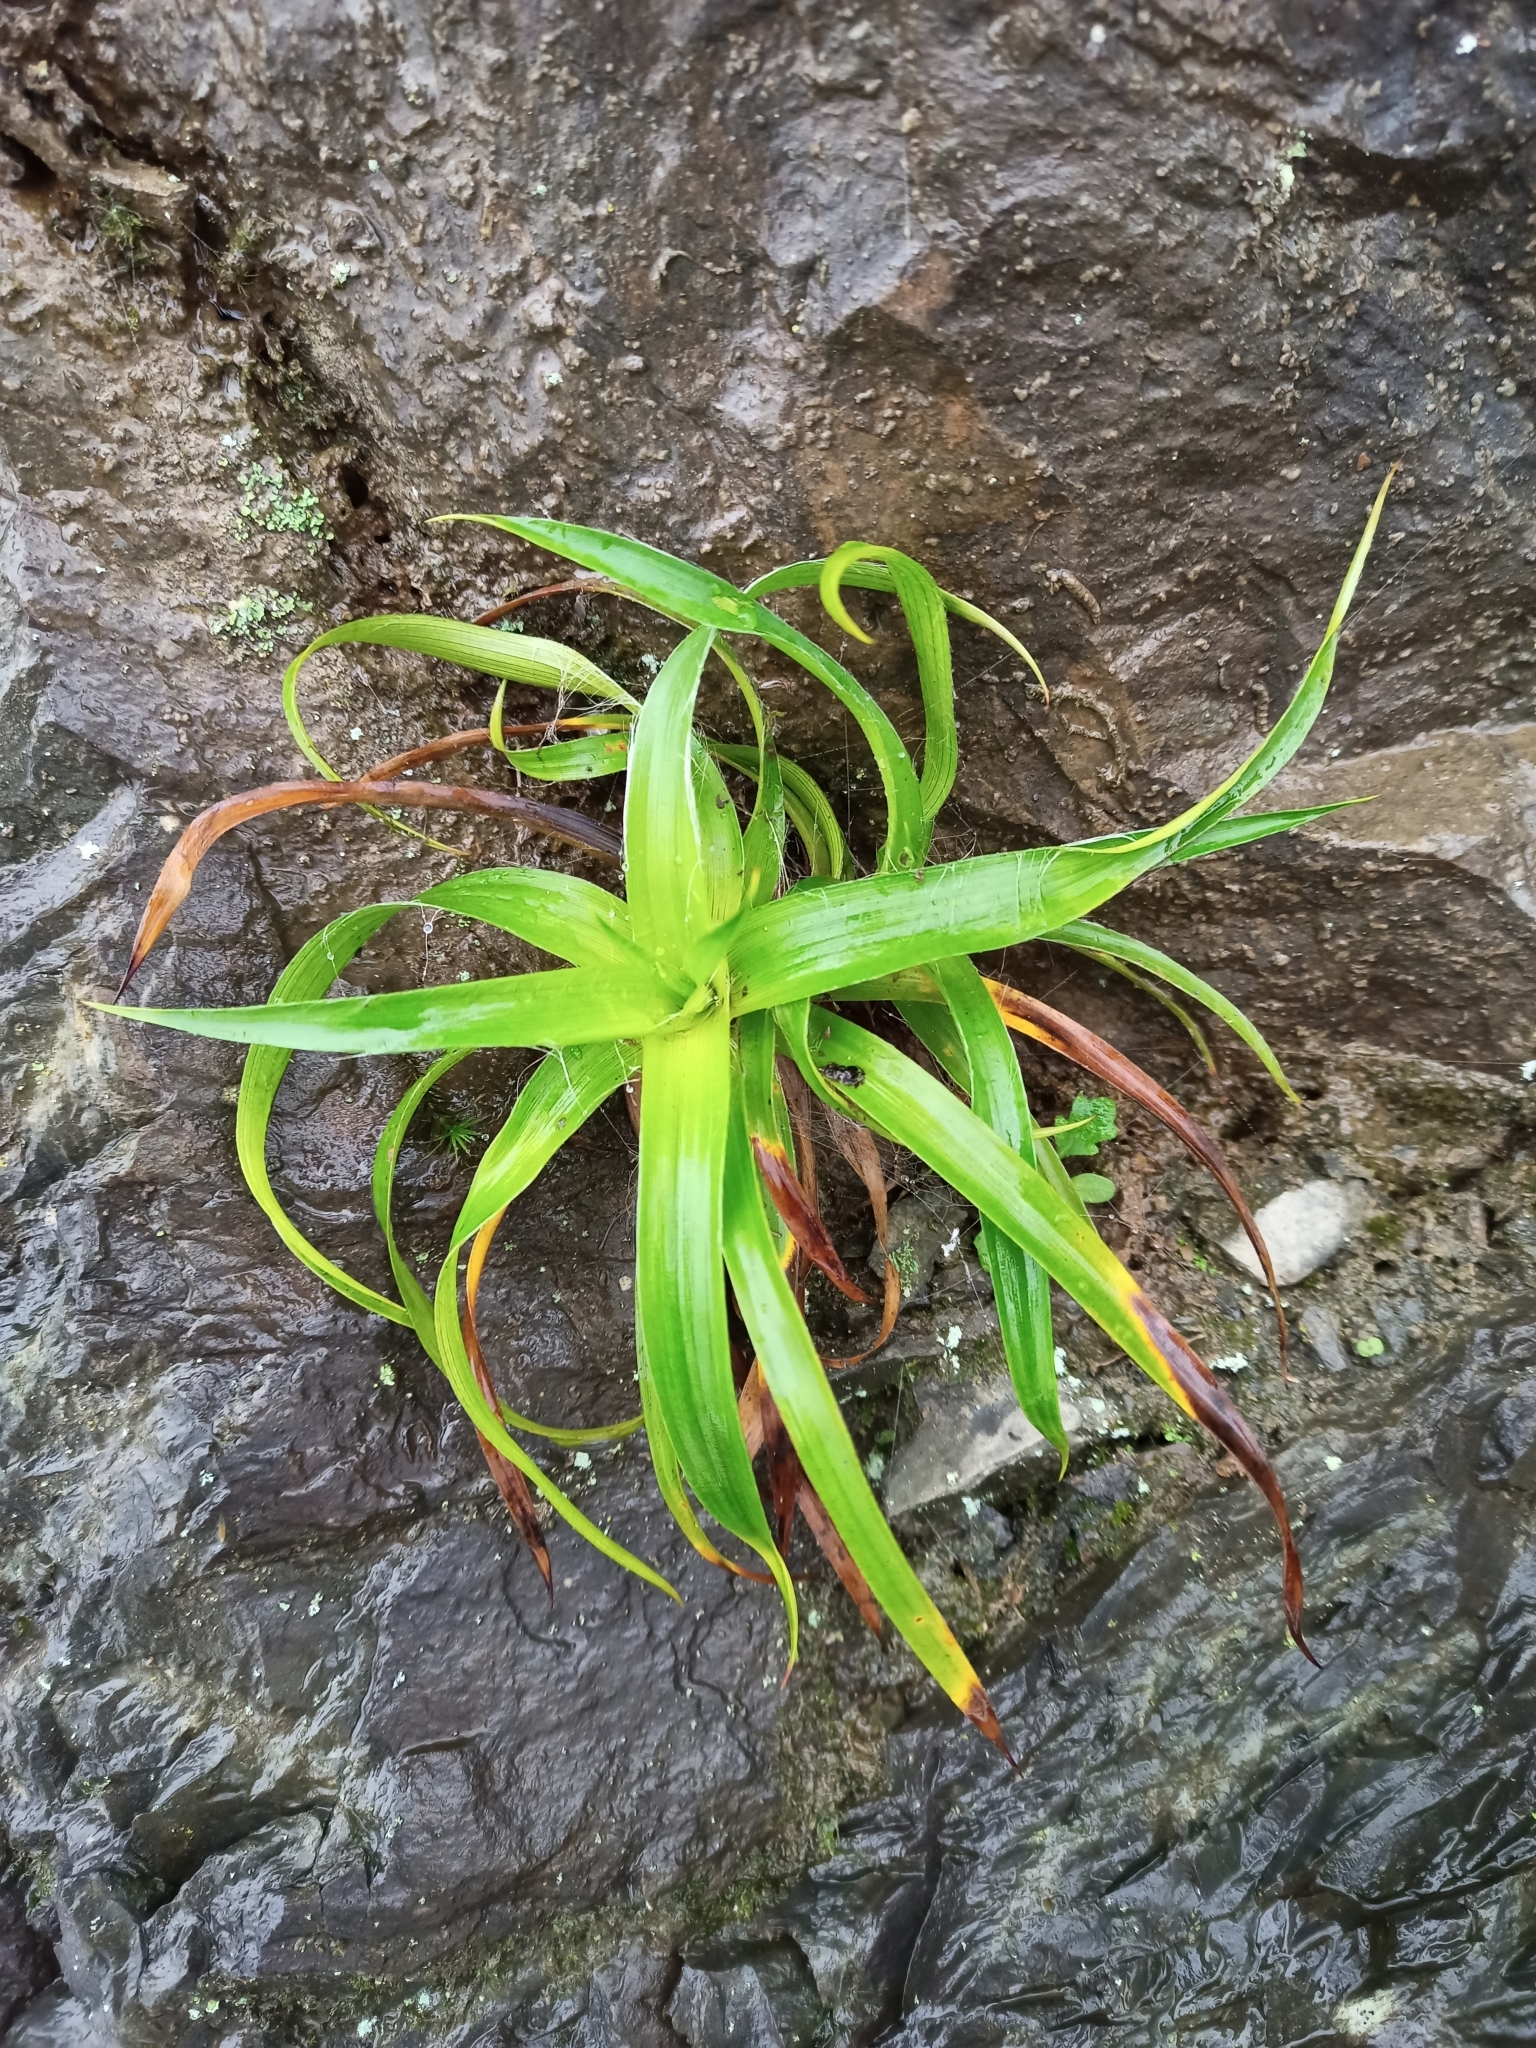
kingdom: Plantae
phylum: Tracheophyta
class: Liliopsida
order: Poales
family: Juncaceae
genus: Luzula
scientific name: Luzula sylvatica
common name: Great wood-rush
